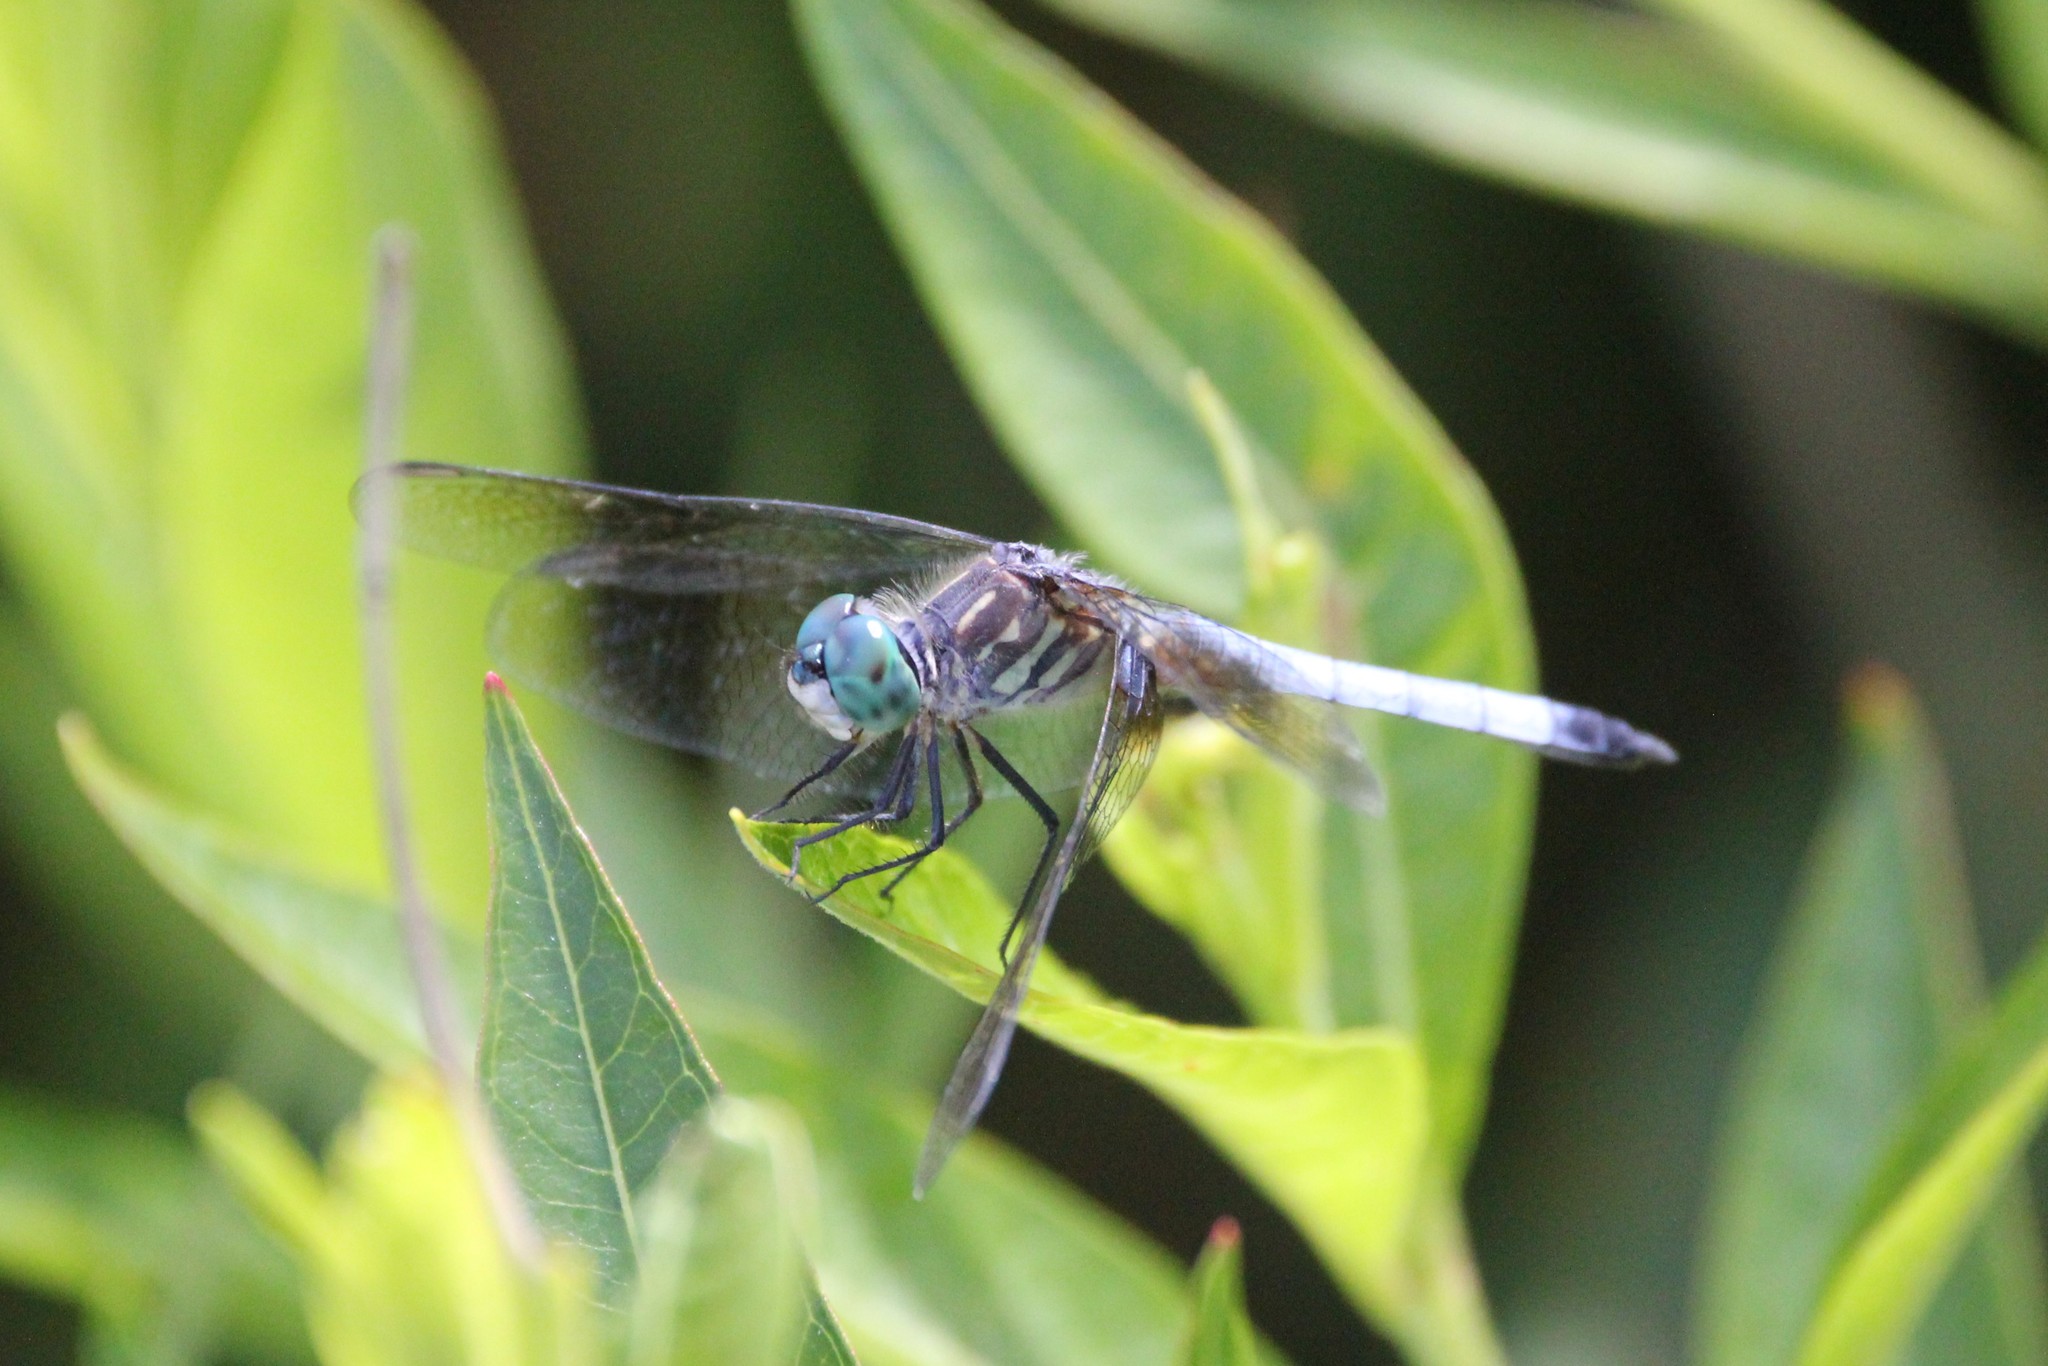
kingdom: Animalia
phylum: Arthropoda
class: Insecta
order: Odonata
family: Libellulidae
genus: Pachydiplax
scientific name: Pachydiplax longipennis
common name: Blue dasher
